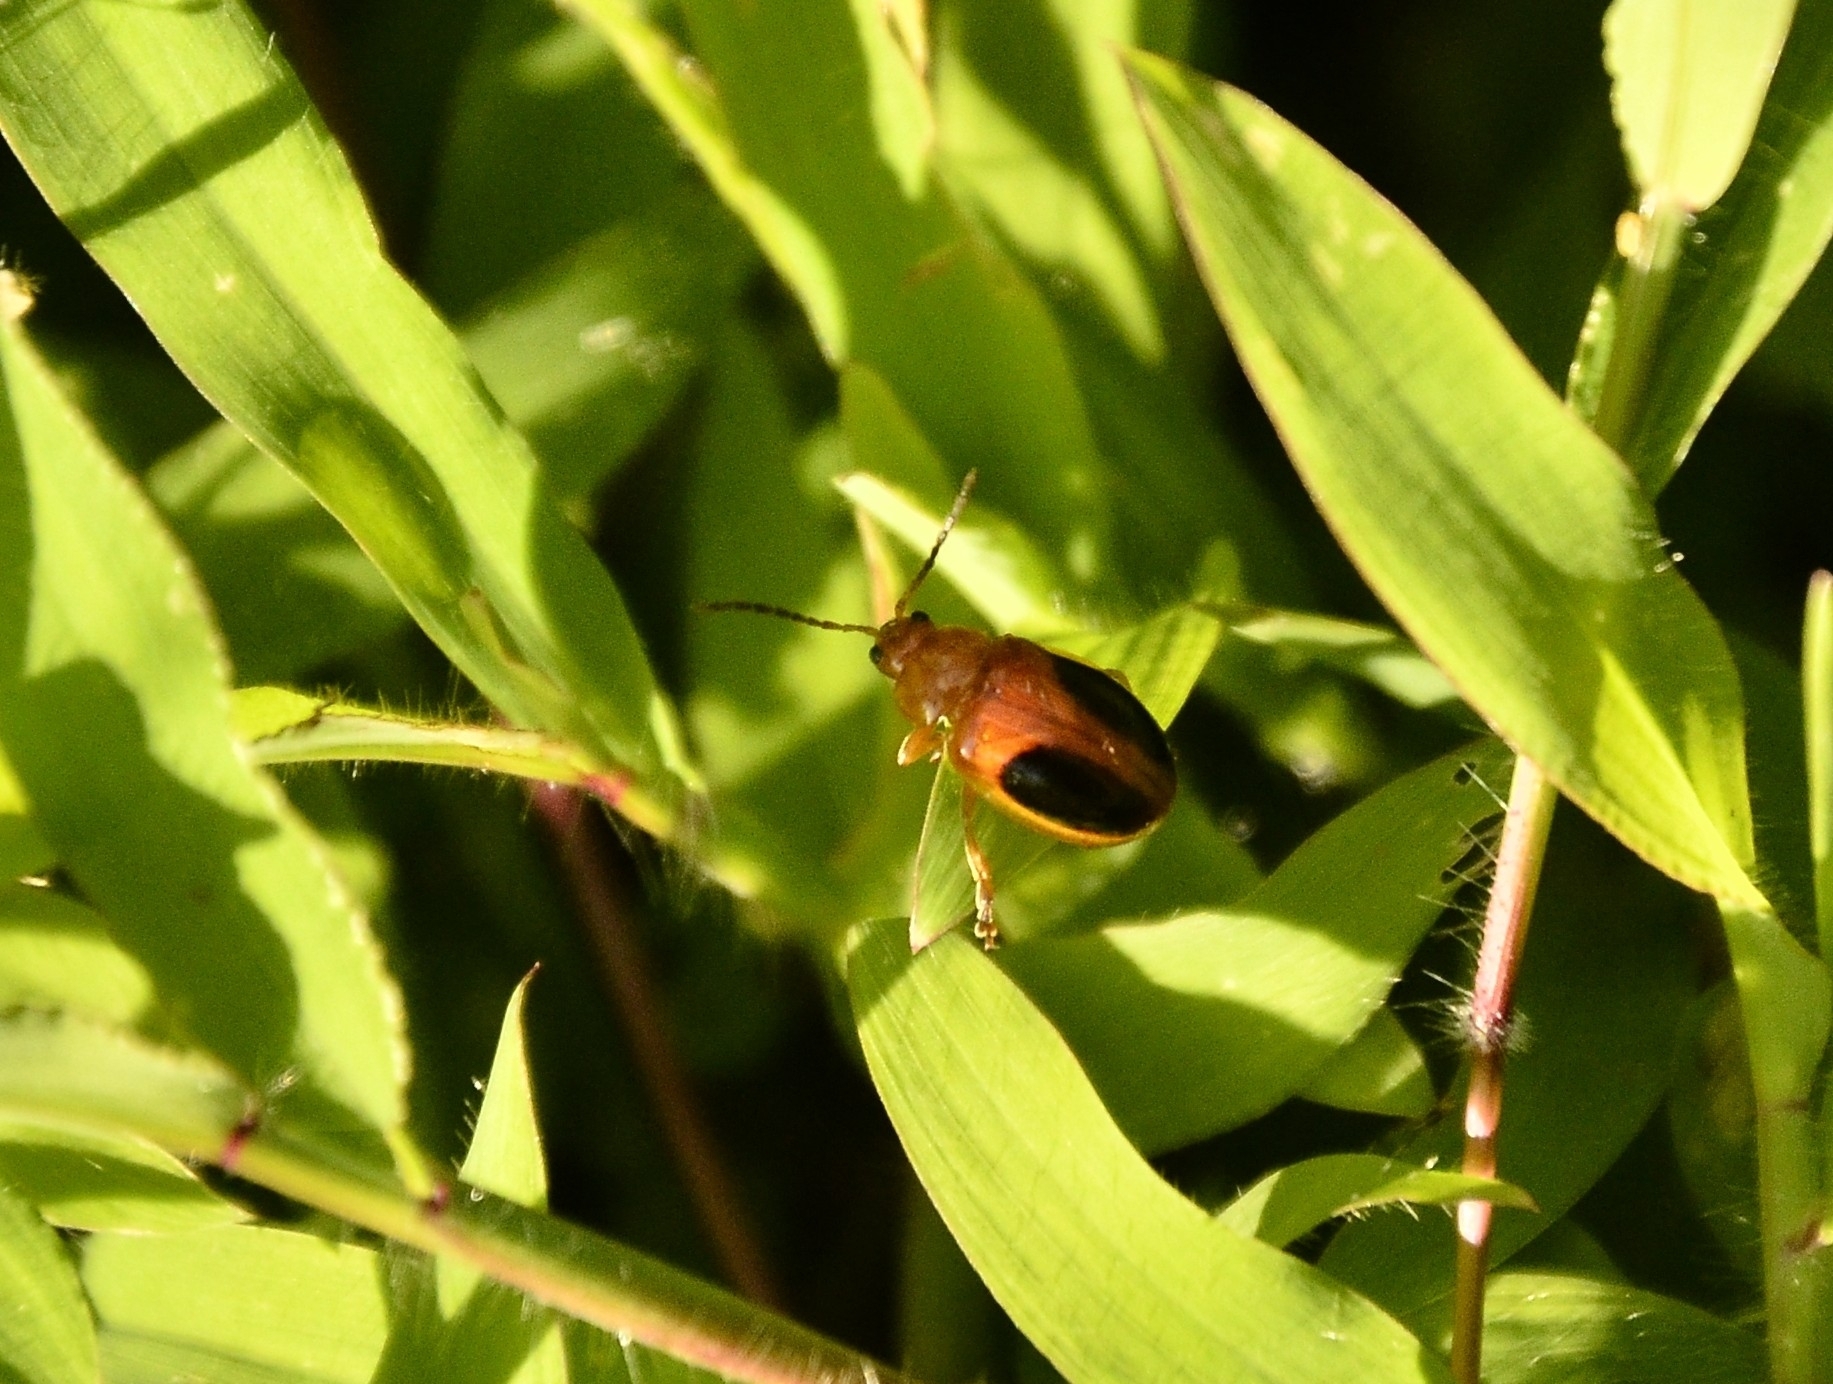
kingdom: Animalia
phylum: Arthropoda
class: Insecta
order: Coleoptera
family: Chrysomelidae
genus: Oides
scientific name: Oides affinis
